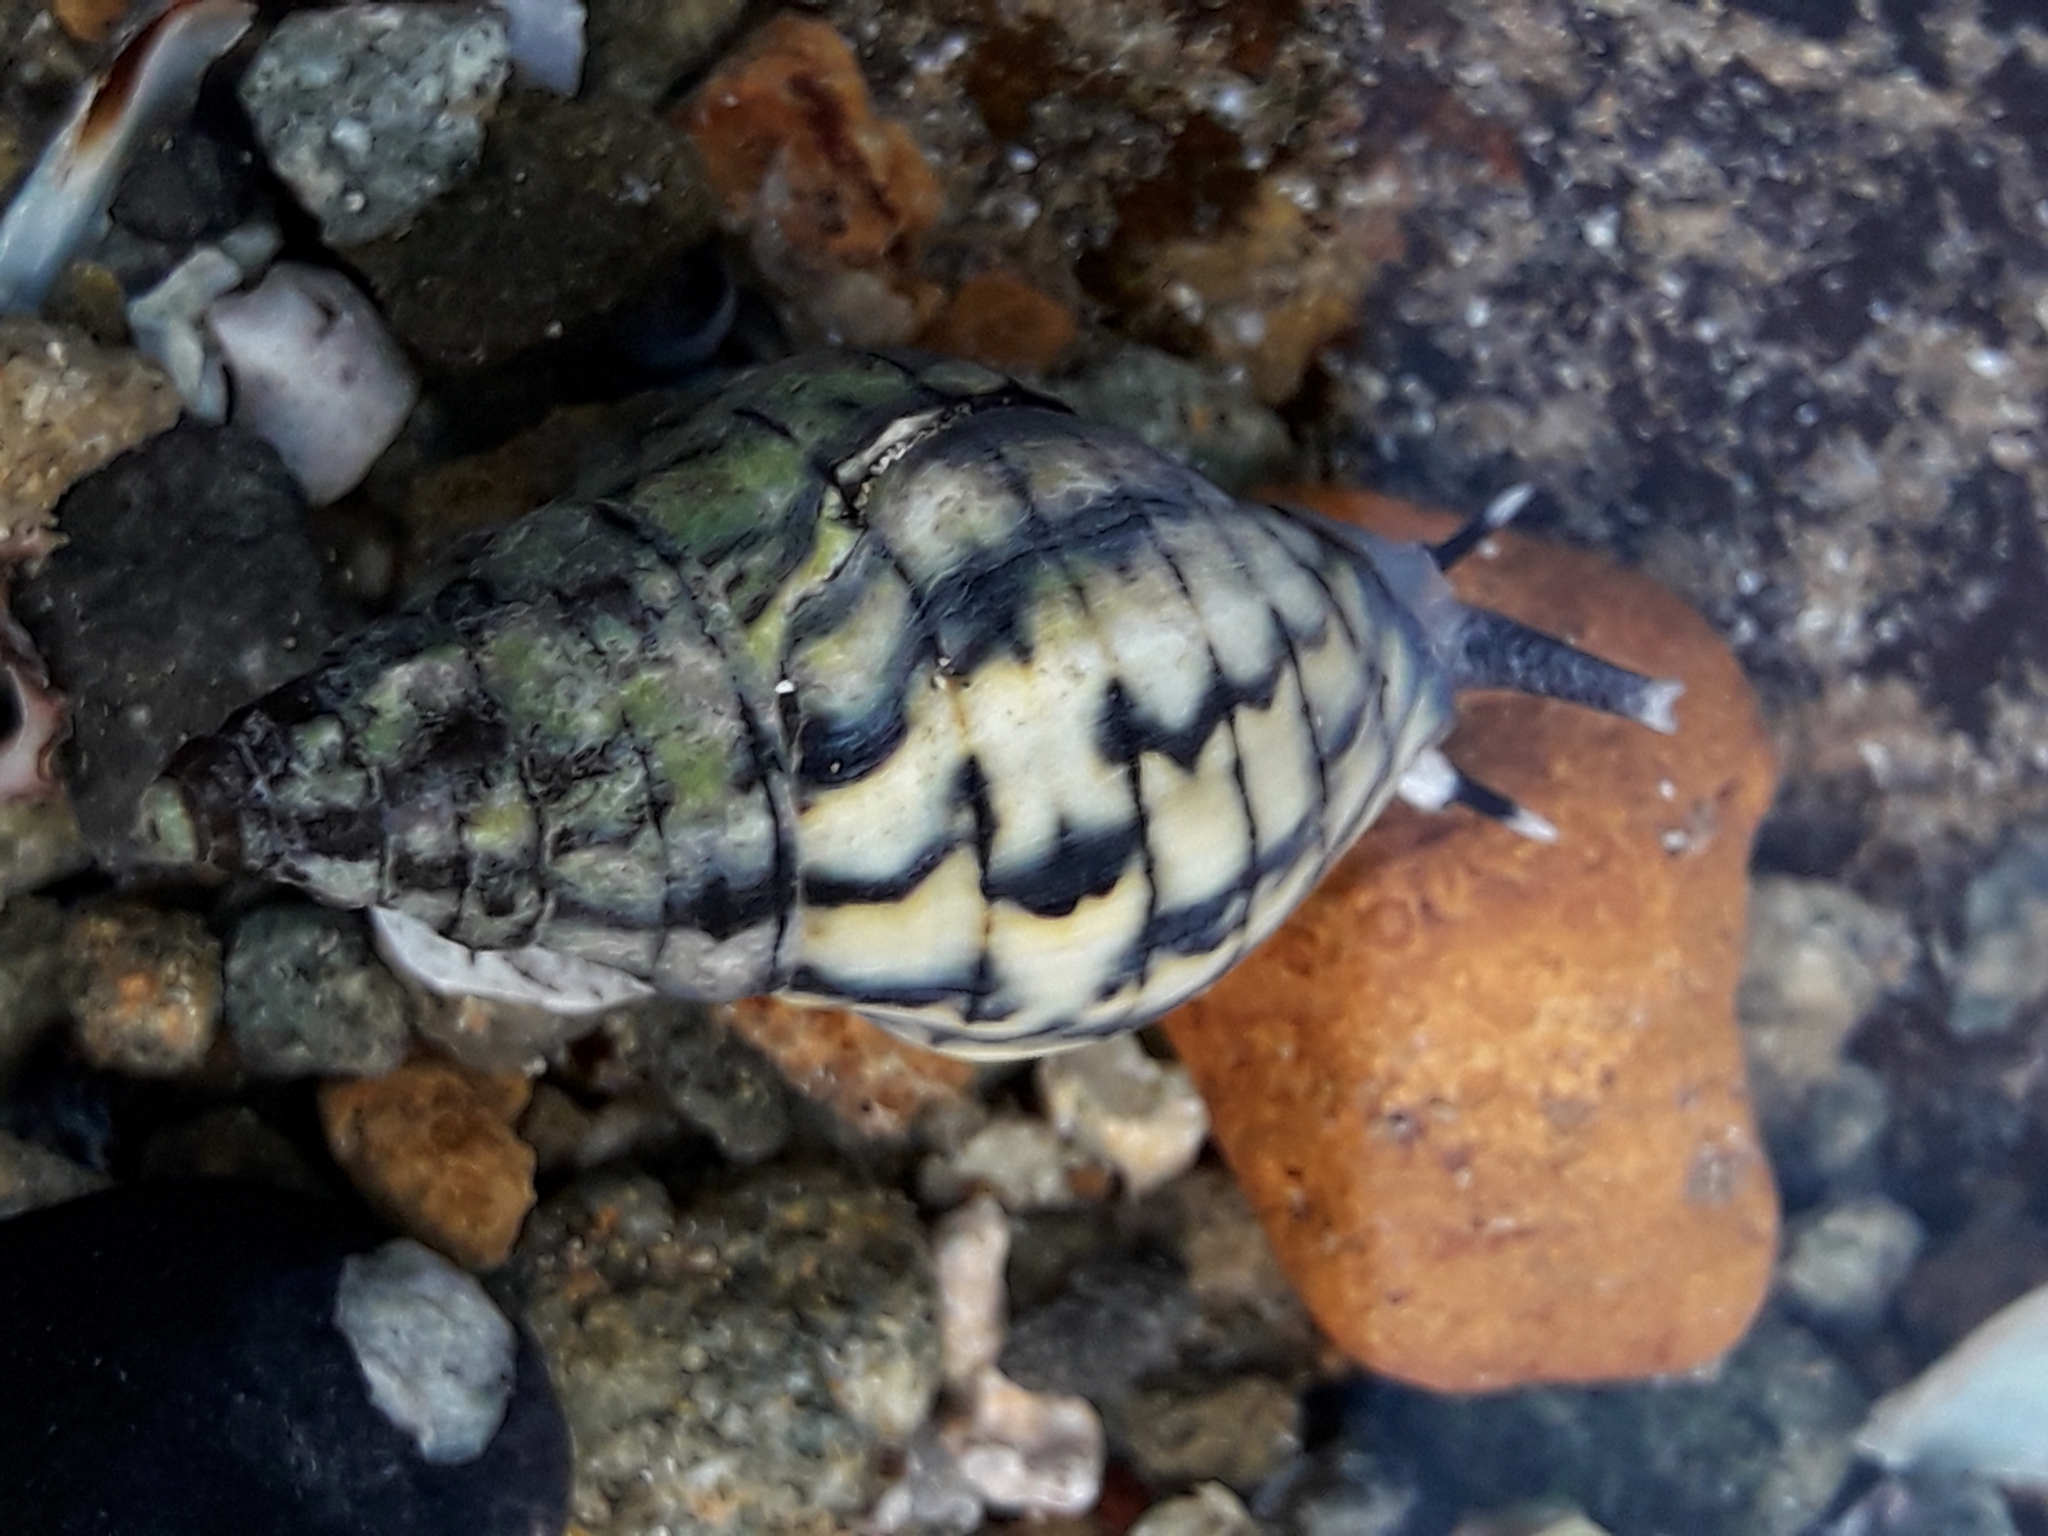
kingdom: Animalia
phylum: Mollusca
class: Gastropoda
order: Neogastropoda
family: Cominellidae
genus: Cominella
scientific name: Cominella virgata
